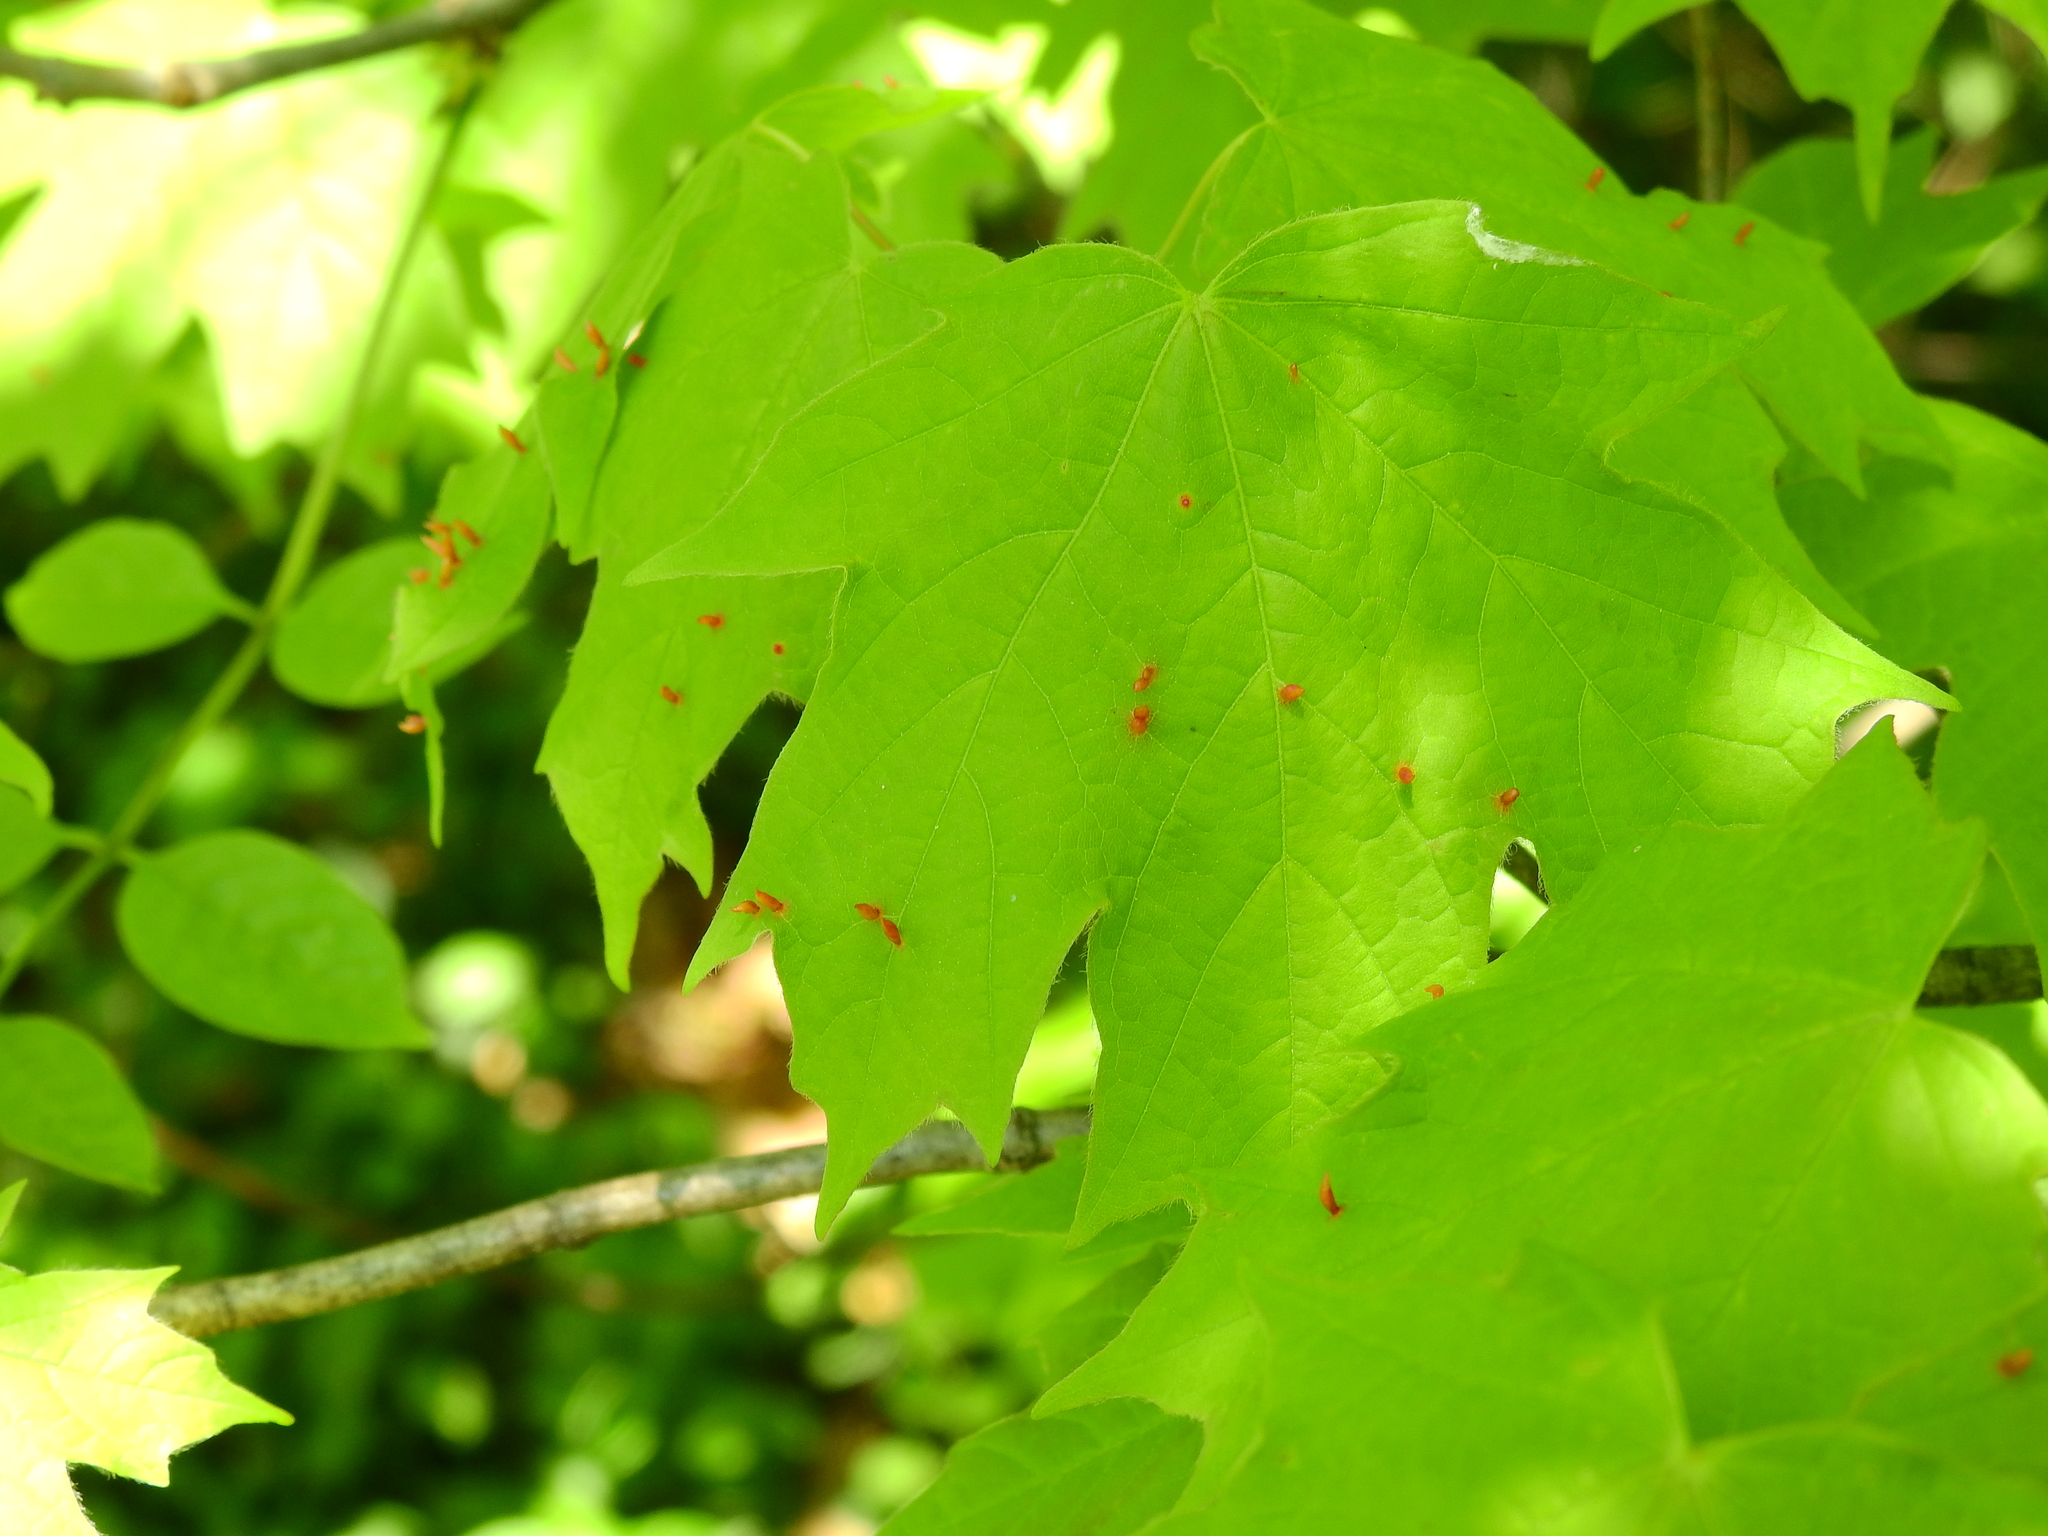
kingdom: Animalia
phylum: Arthropoda
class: Arachnida
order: Trombidiformes
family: Eriophyidae
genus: Vasates
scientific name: Vasates aceriscrumena
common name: Maple spindle gall mite
